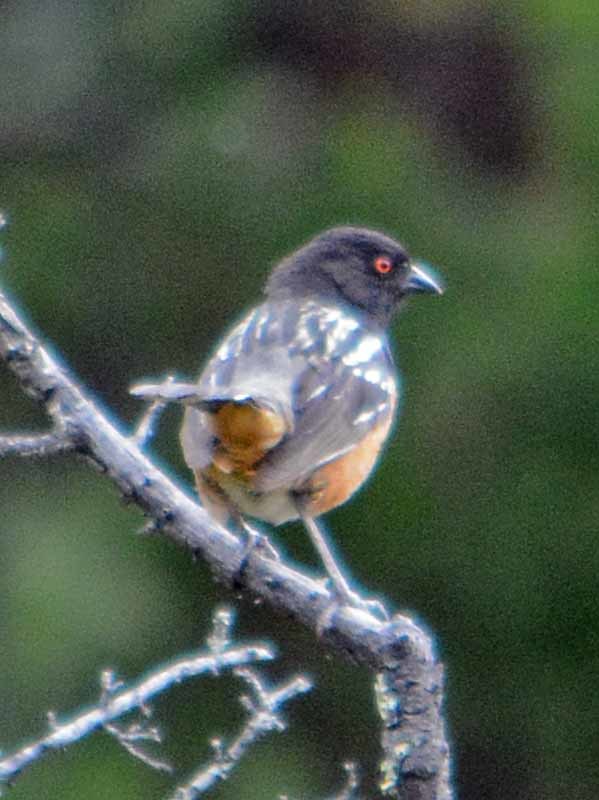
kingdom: Animalia
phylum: Chordata
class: Aves
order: Passeriformes
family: Passerellidae
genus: Pipilo
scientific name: Pipilo maculatus
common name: Spotted towhee
